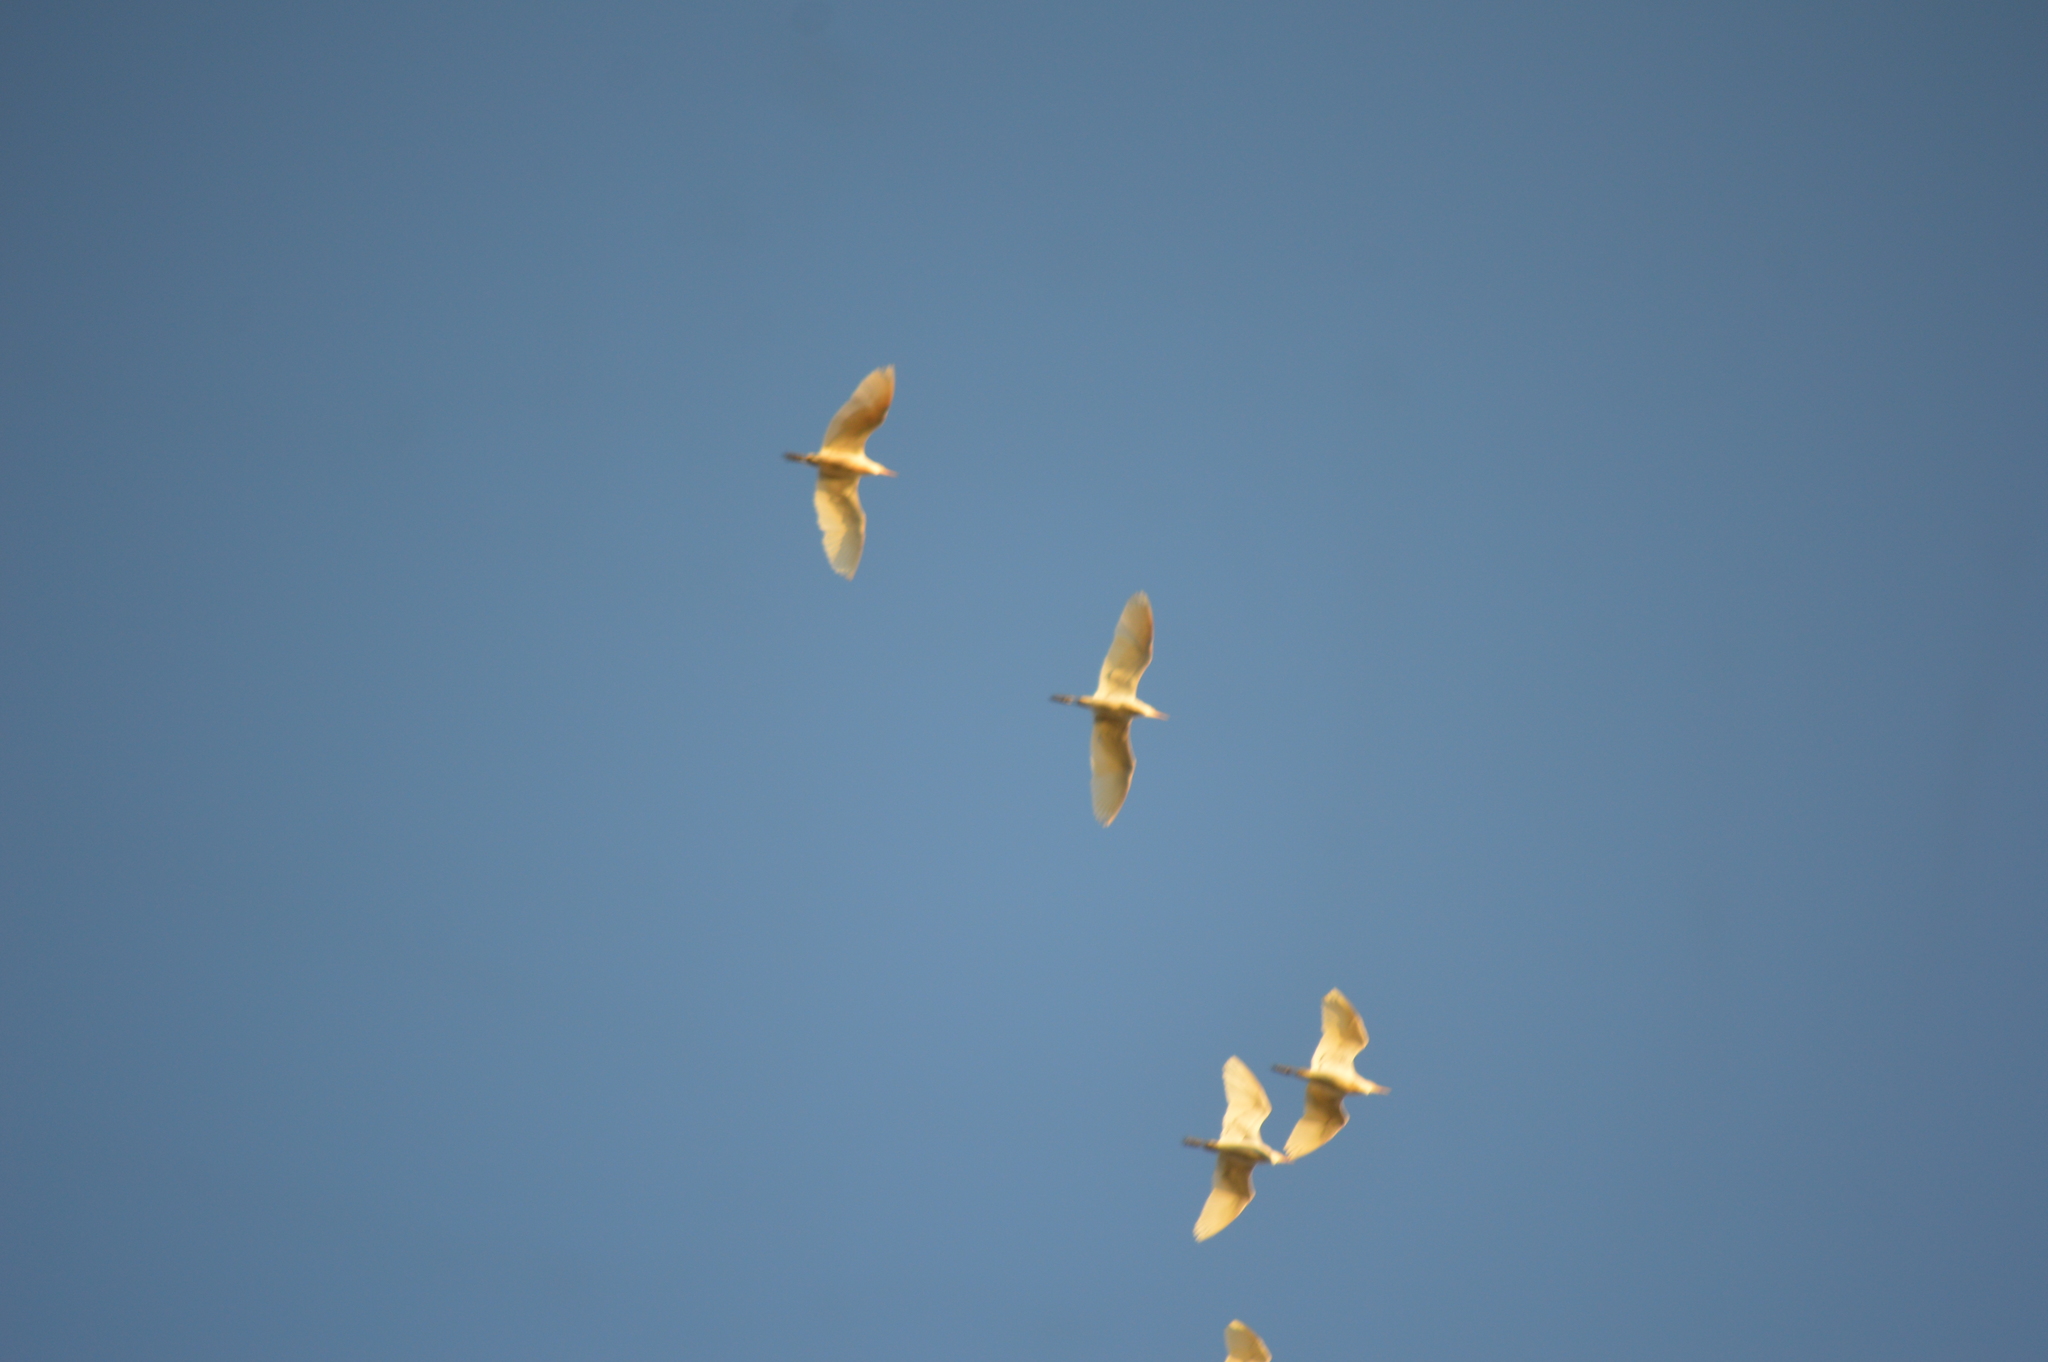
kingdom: Animalia
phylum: Chordata
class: Aves
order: Pelecaniformes
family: Ardeidae
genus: Bubulcus
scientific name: Bubulcus ibis
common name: Cattle egret
